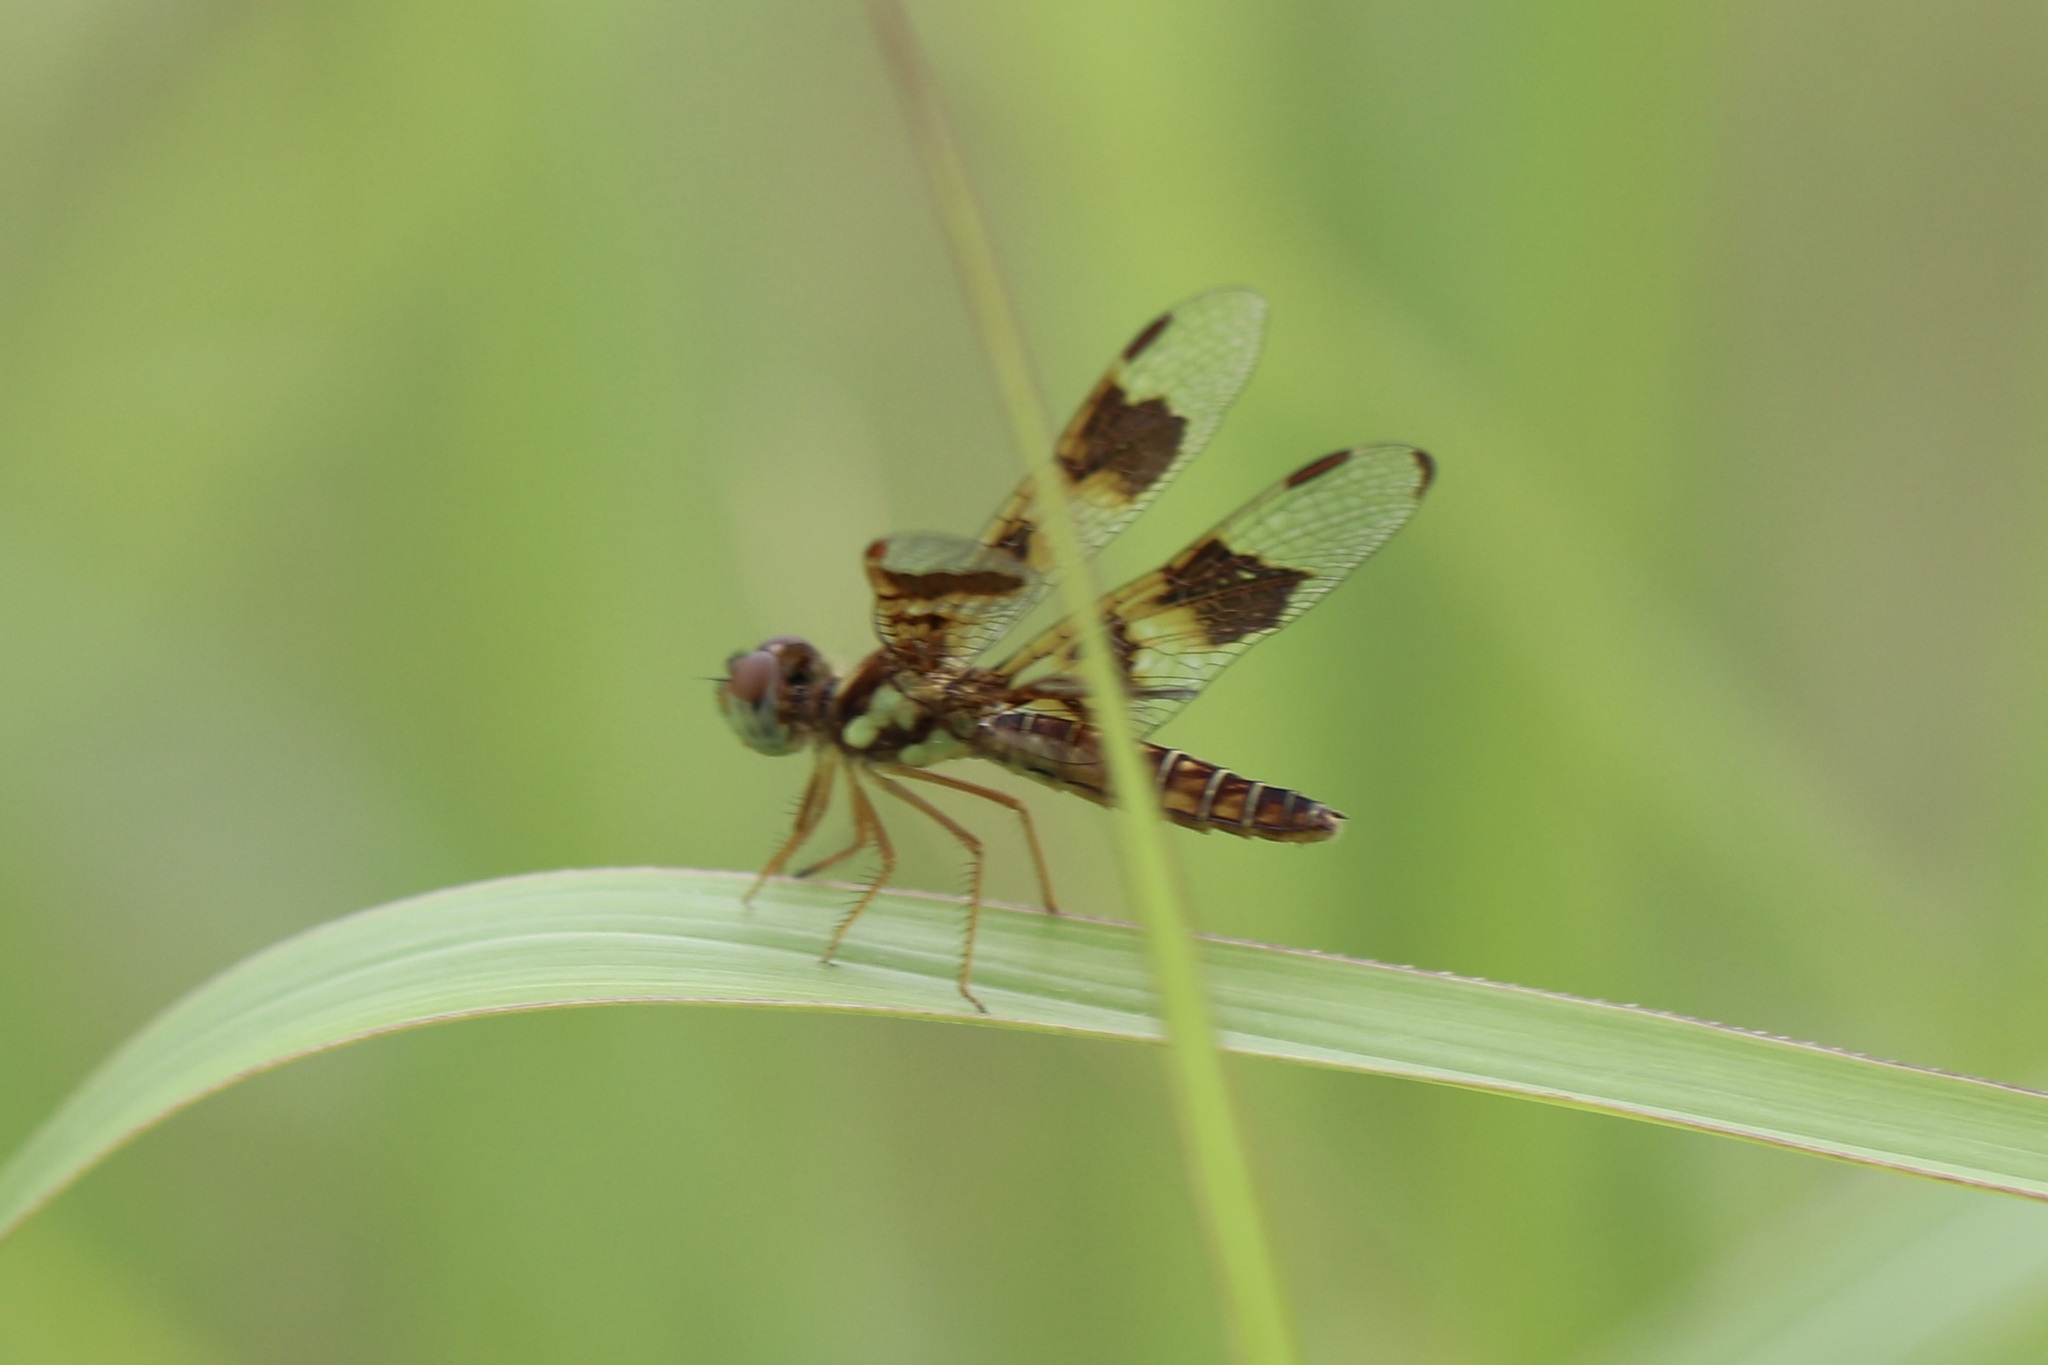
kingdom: Animalia
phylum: Arthropoda
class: Insecta
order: Odonata
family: Libellulidae
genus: Perithemis
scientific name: Perithemis tenera
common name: Eastern amberwing
